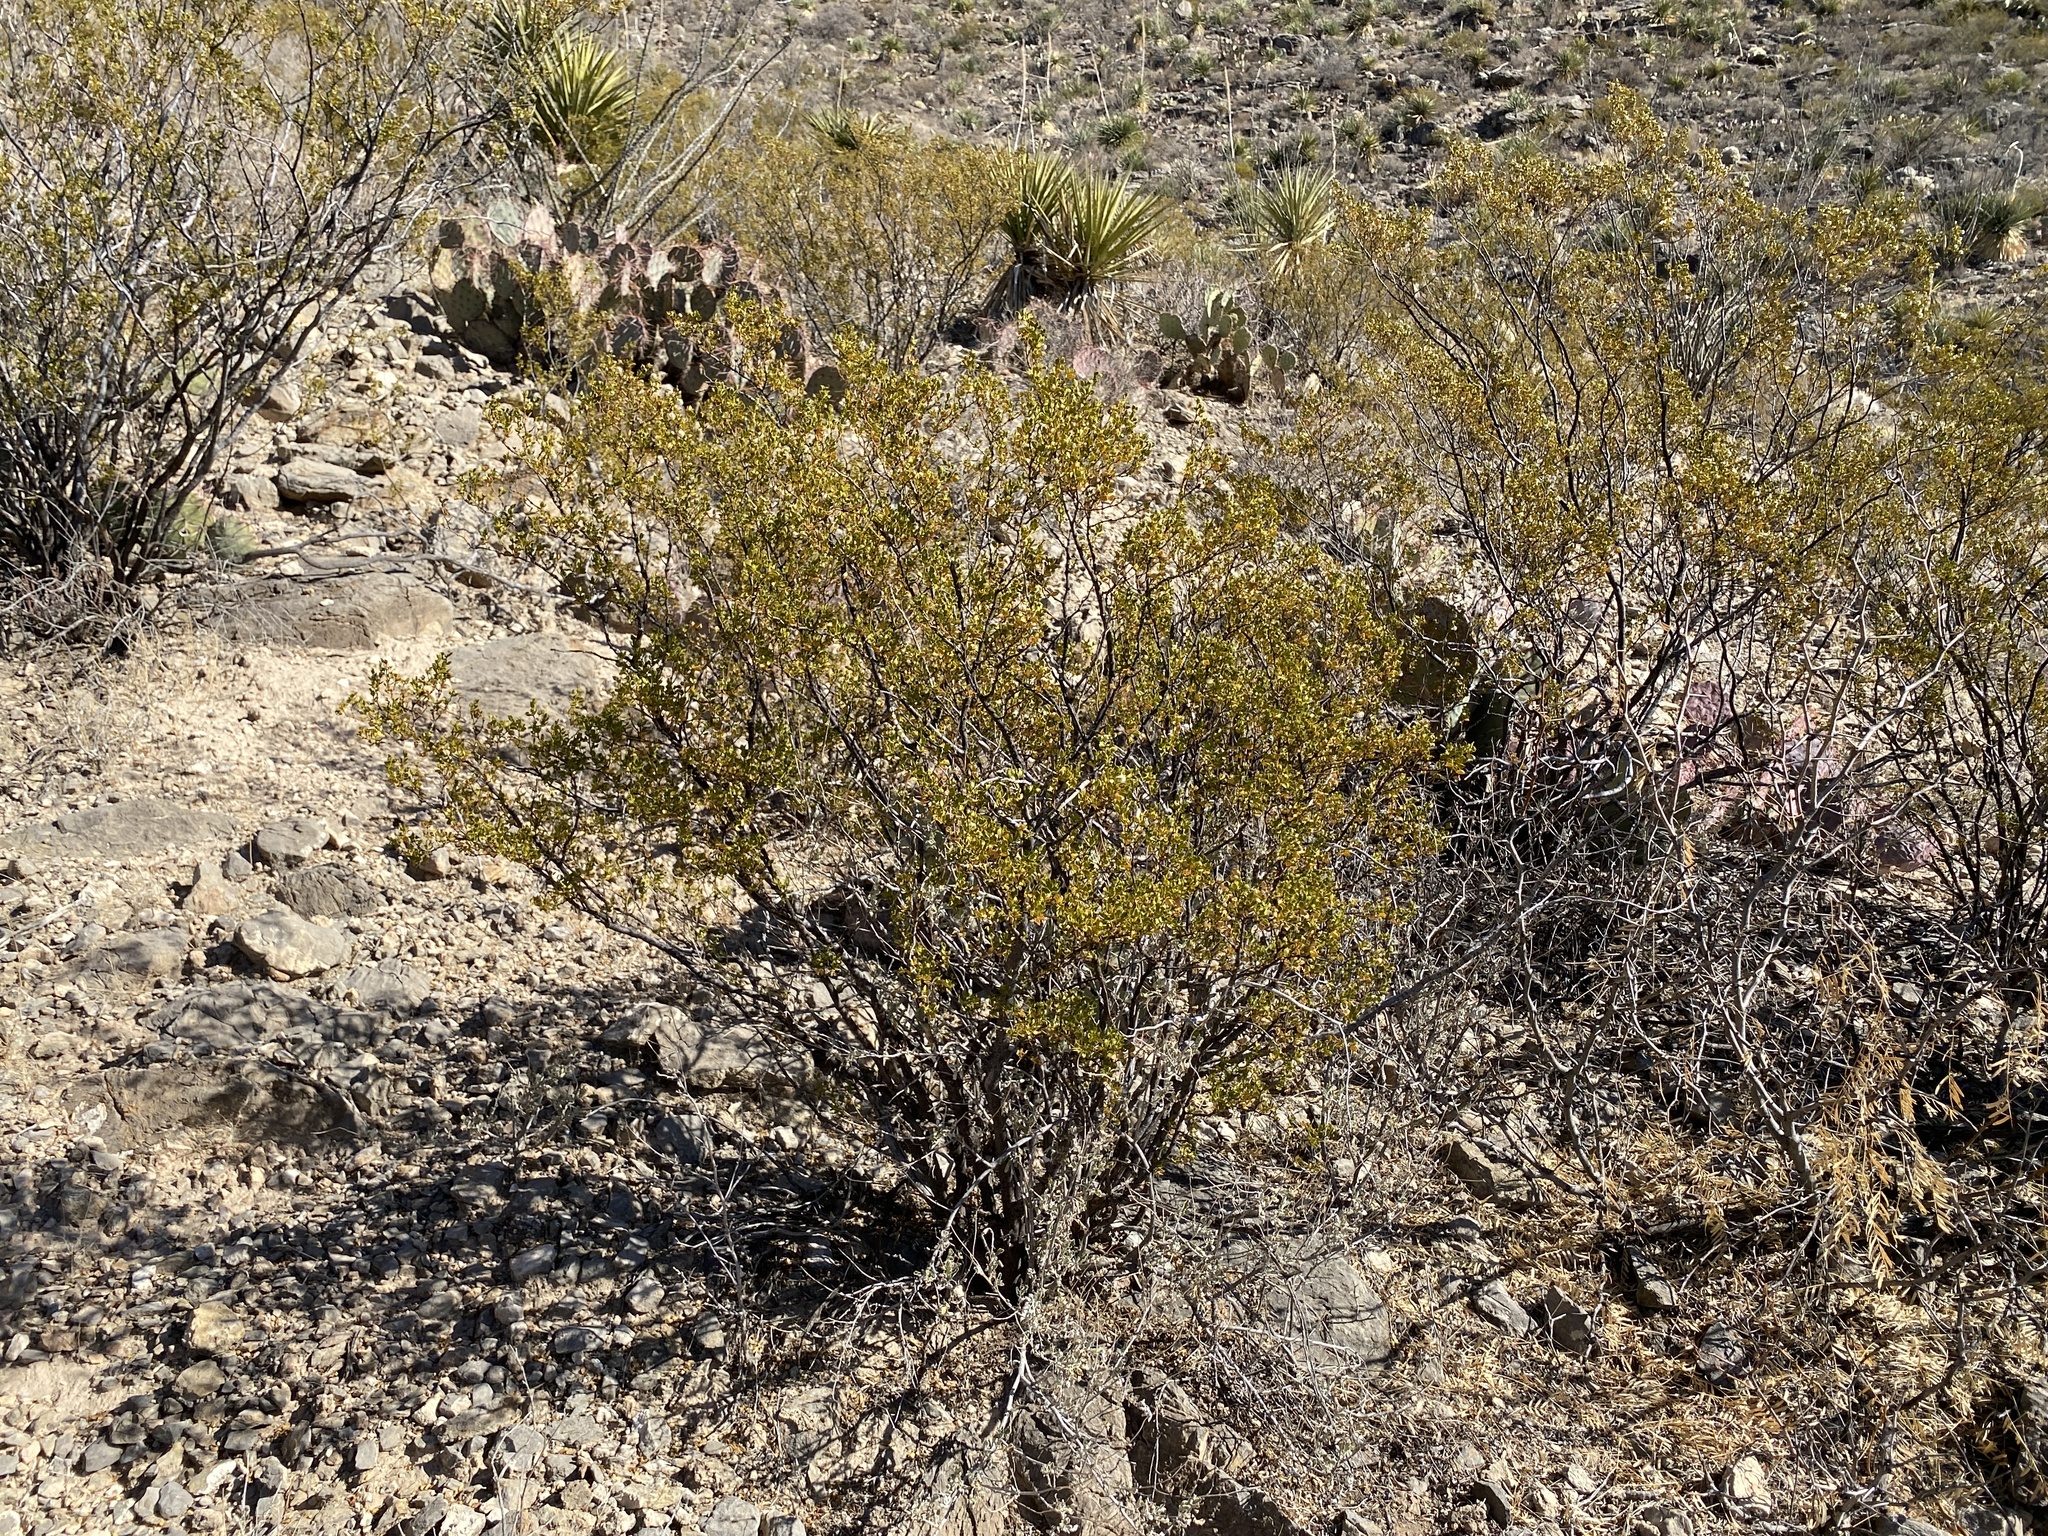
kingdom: Plantae
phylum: Tracheophyta
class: Magnoliopsida
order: Zygophyllales
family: Zygophyllaceae
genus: Larrea
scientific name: Larrea tridentata
